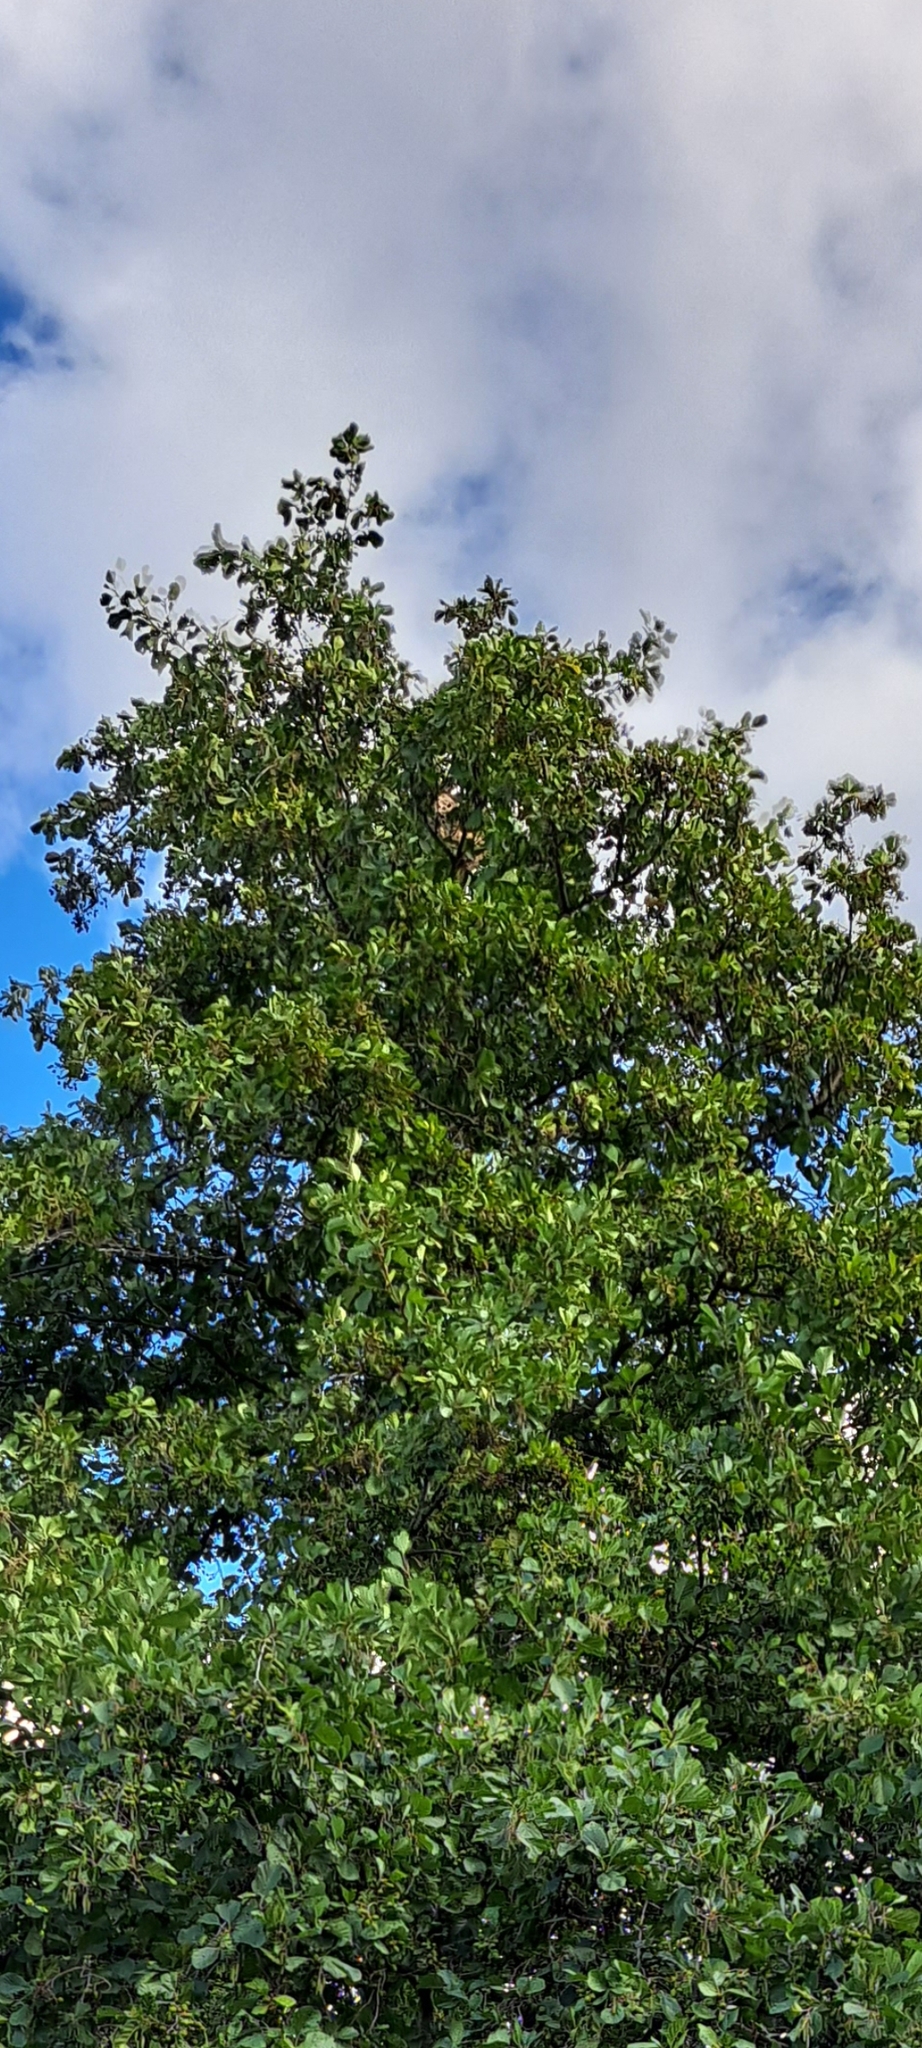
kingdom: Animalia
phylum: Arthropoda
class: Insecta
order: Hymenoptera
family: Vespidae
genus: Vespa
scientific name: Vespa velutina
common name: Asian hornet
